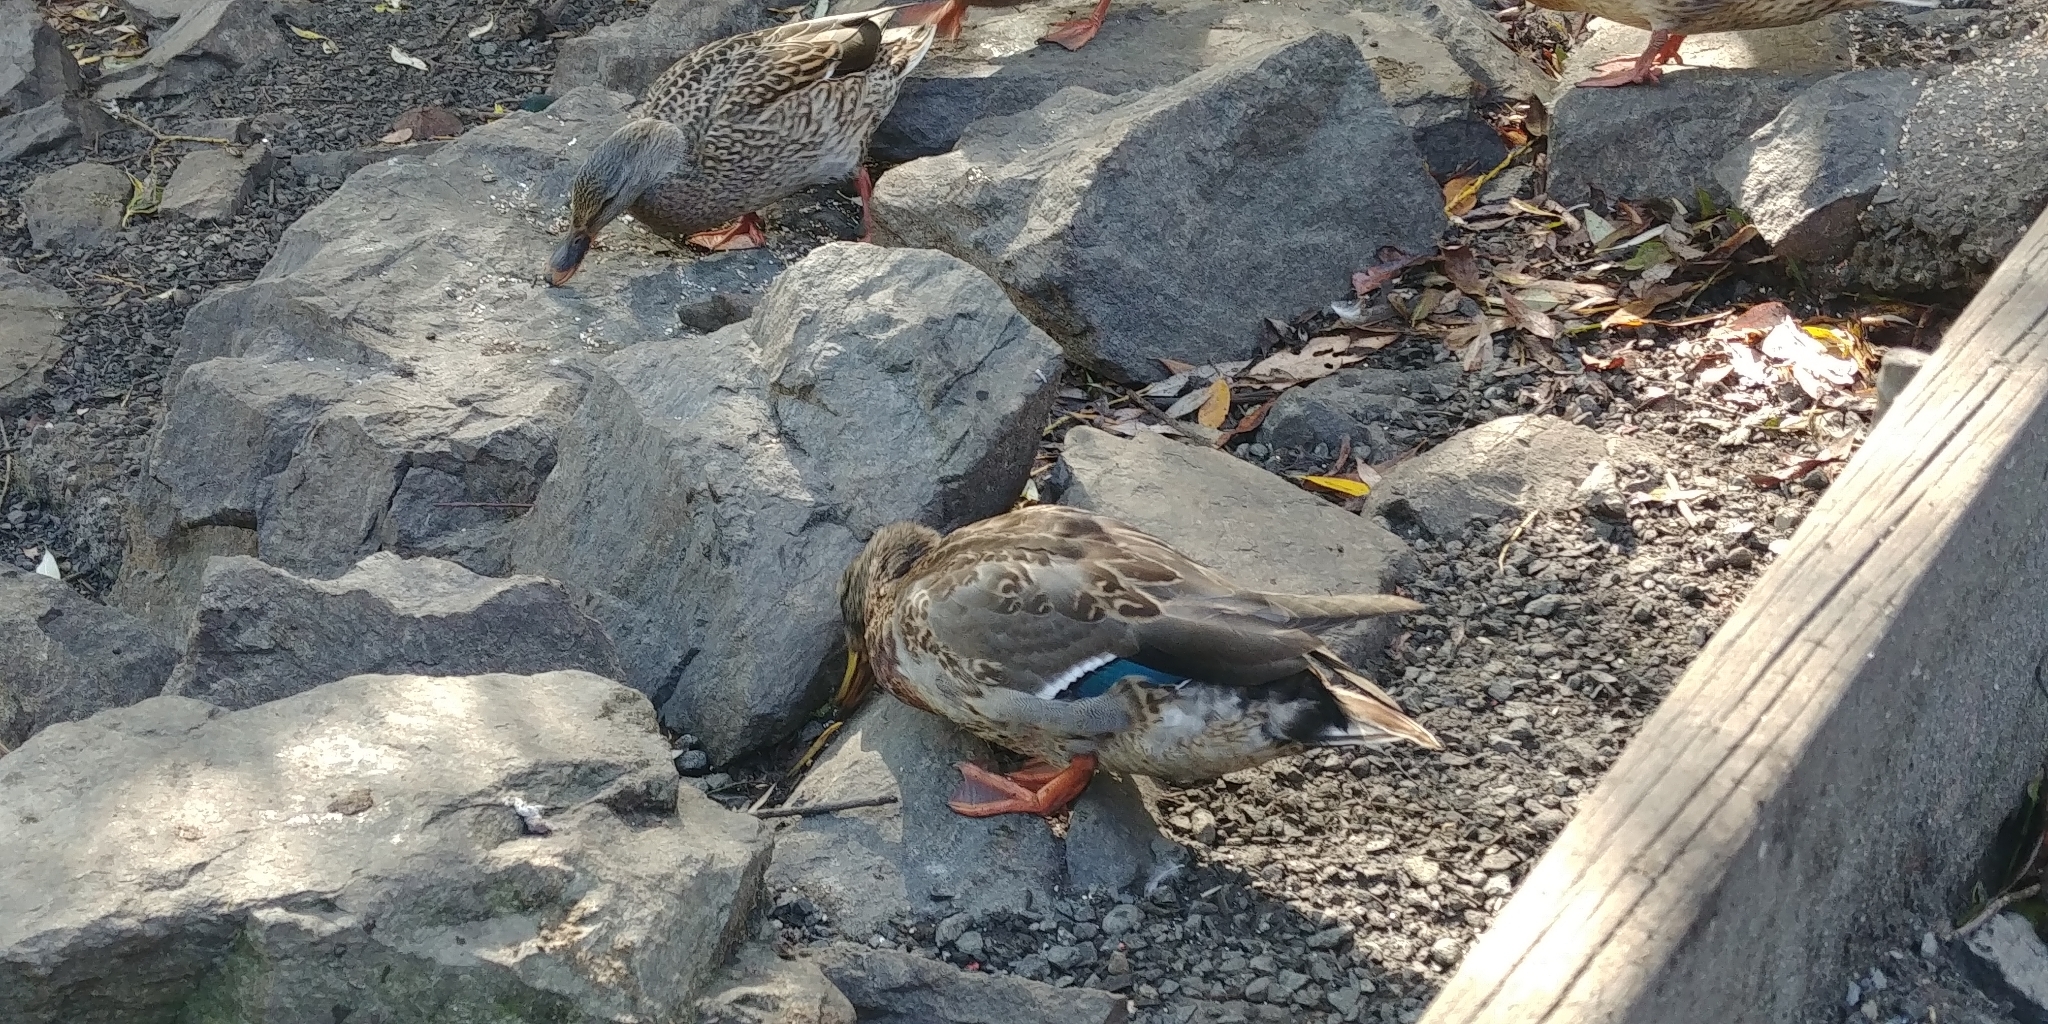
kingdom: Animalia
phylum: Chordata
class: Aves
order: Anseriformes
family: Anatidae
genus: Anas
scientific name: Anas platyrhynchos
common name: Mallard
